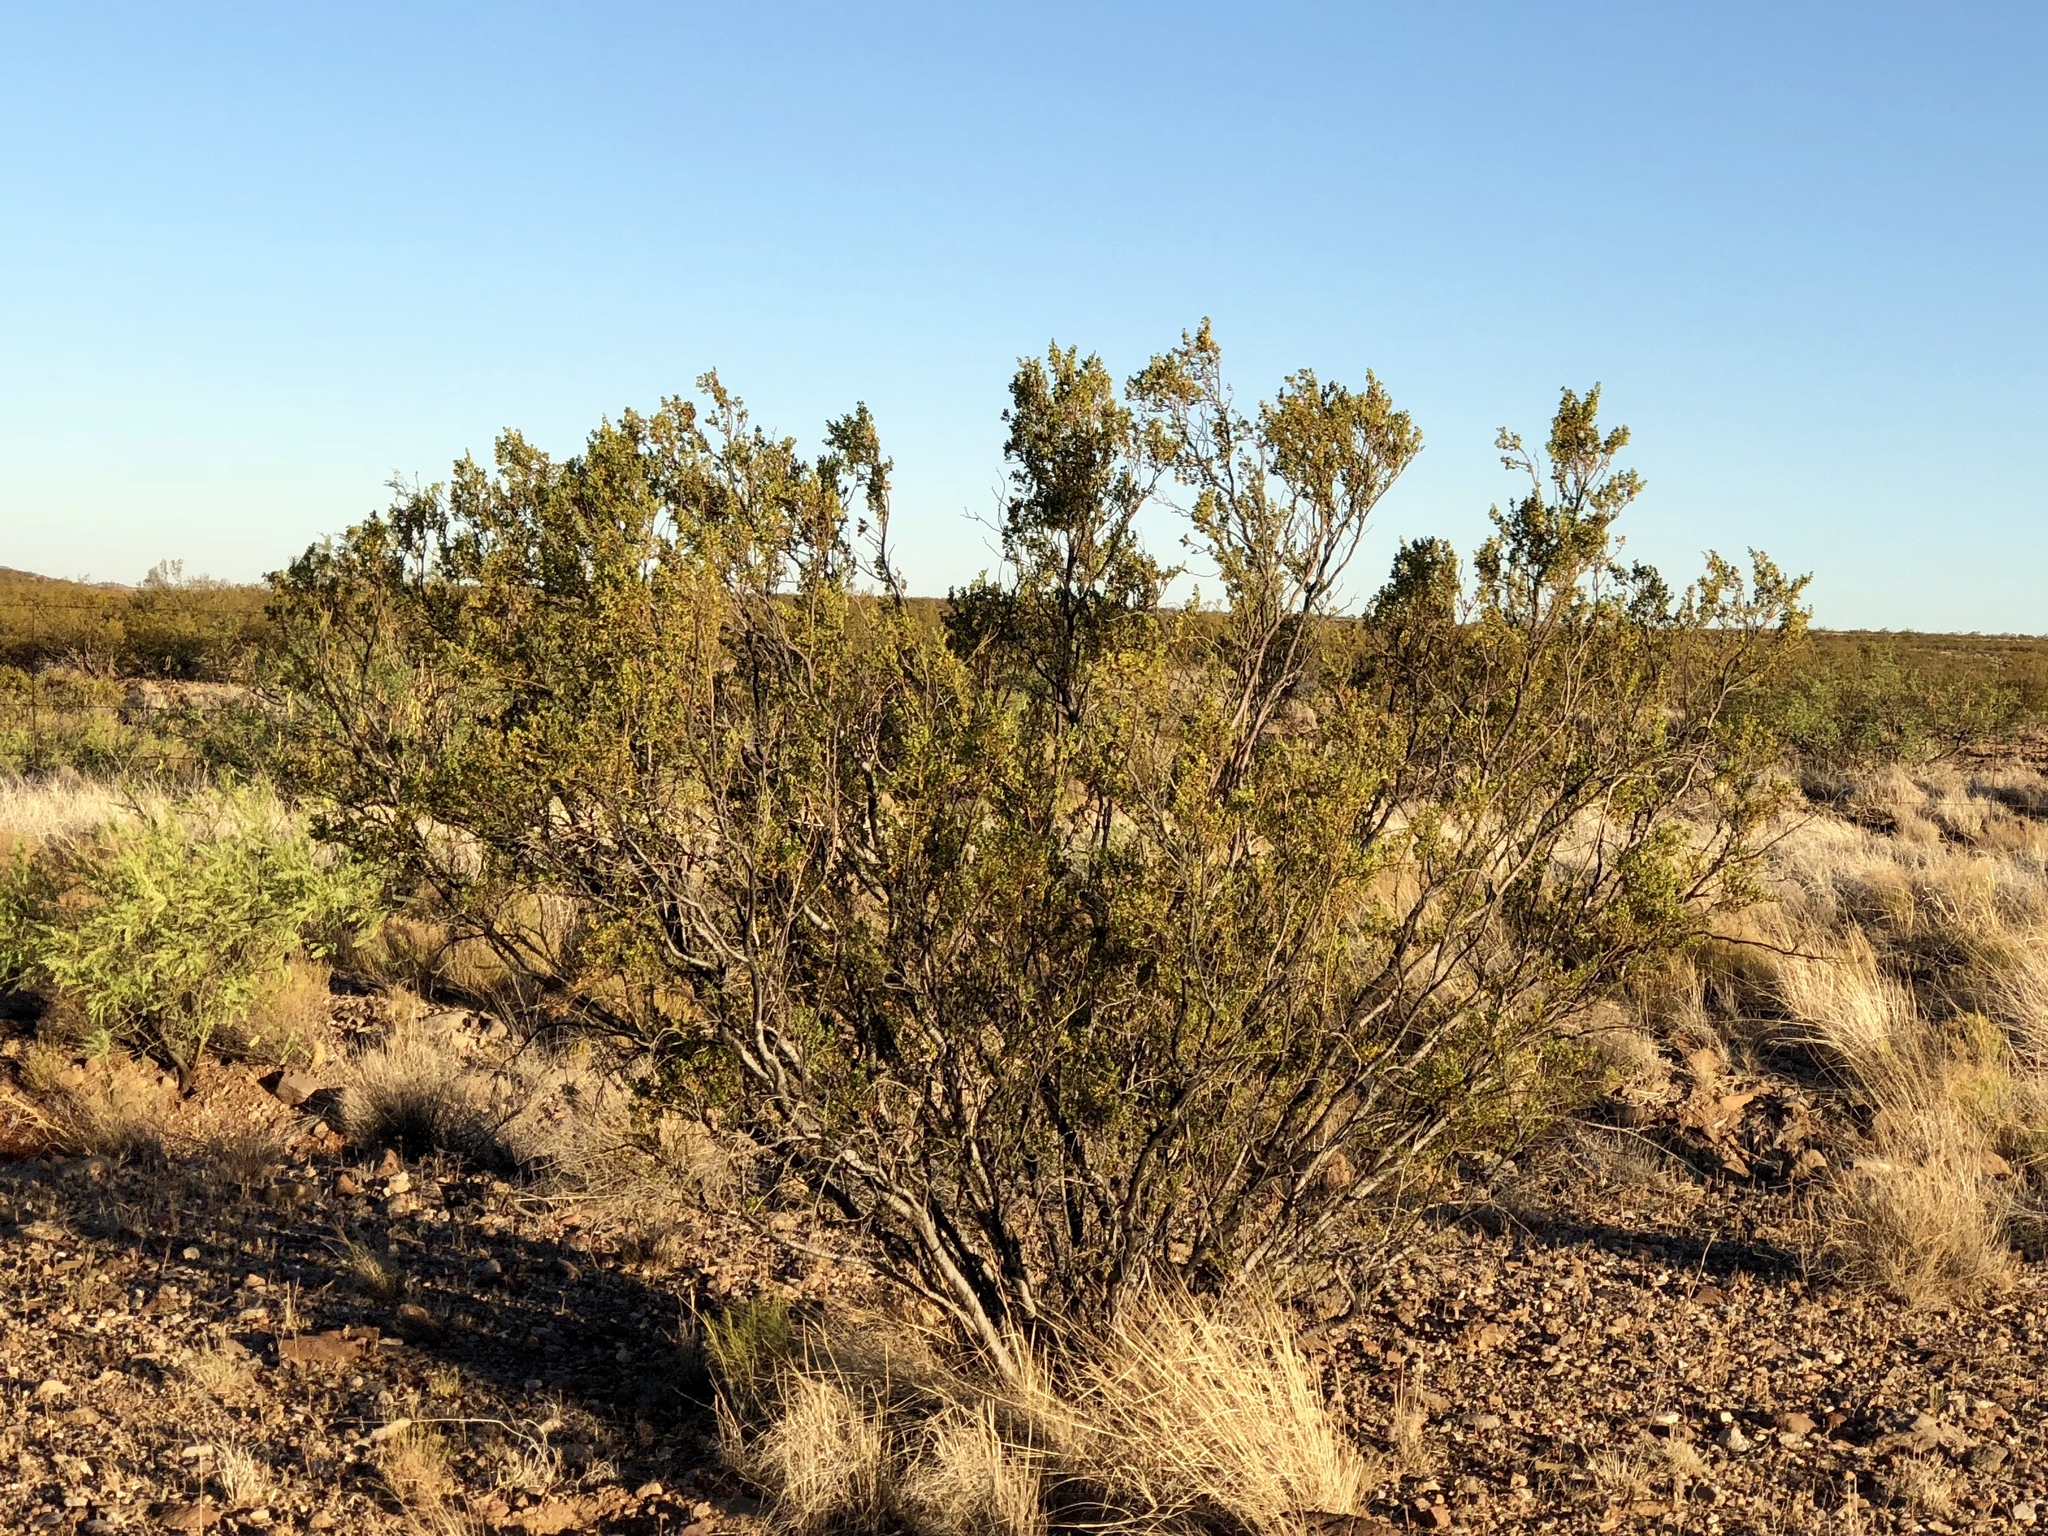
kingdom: Plantae
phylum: Tracheophyta
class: Magnoliopsida
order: Zygophyllales
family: Zygophyllaceae
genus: Larrea
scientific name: Larrea tridentata
